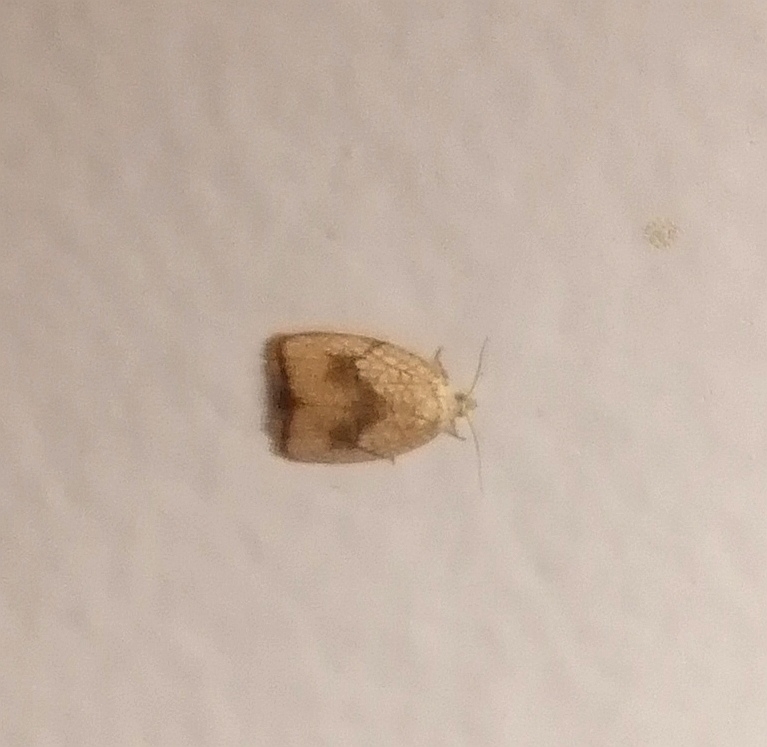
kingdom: Animalia
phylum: Arthropoda
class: Insecta
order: Lepidoptera
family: Tortricidae
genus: Acleris
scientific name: Acleris forsskaleana
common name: Maple button
